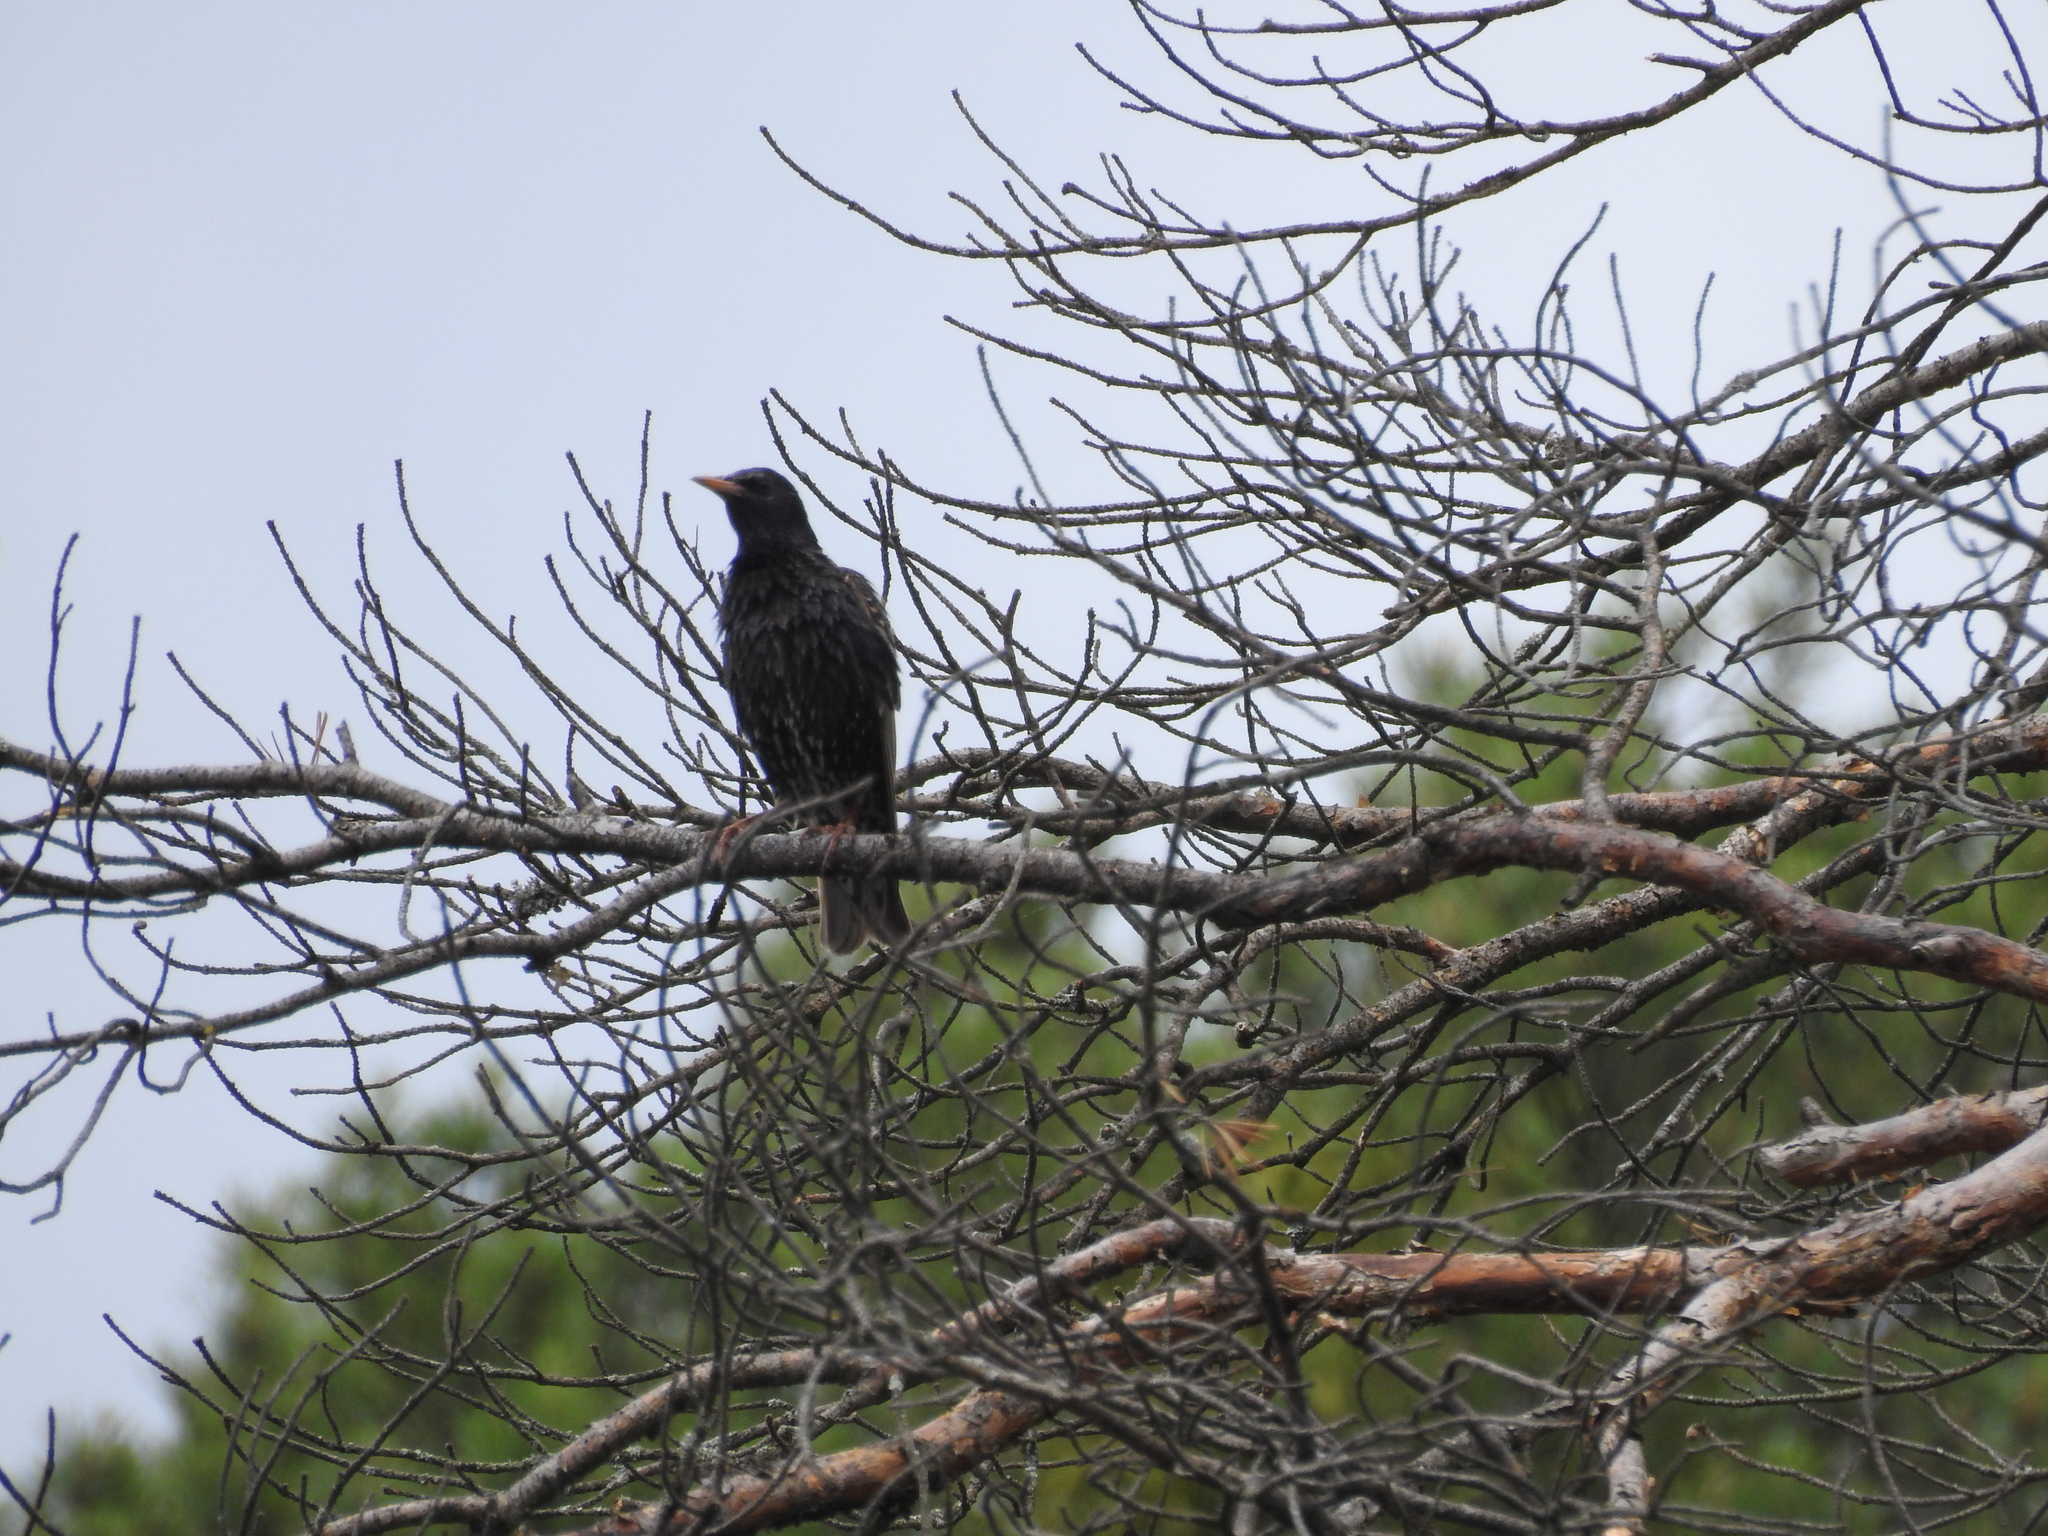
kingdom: Animalia
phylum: Chordata
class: Aves
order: Passeriformes
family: Sturnidae
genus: Sturnus
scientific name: Sturnus vulgaris
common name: Common starling
